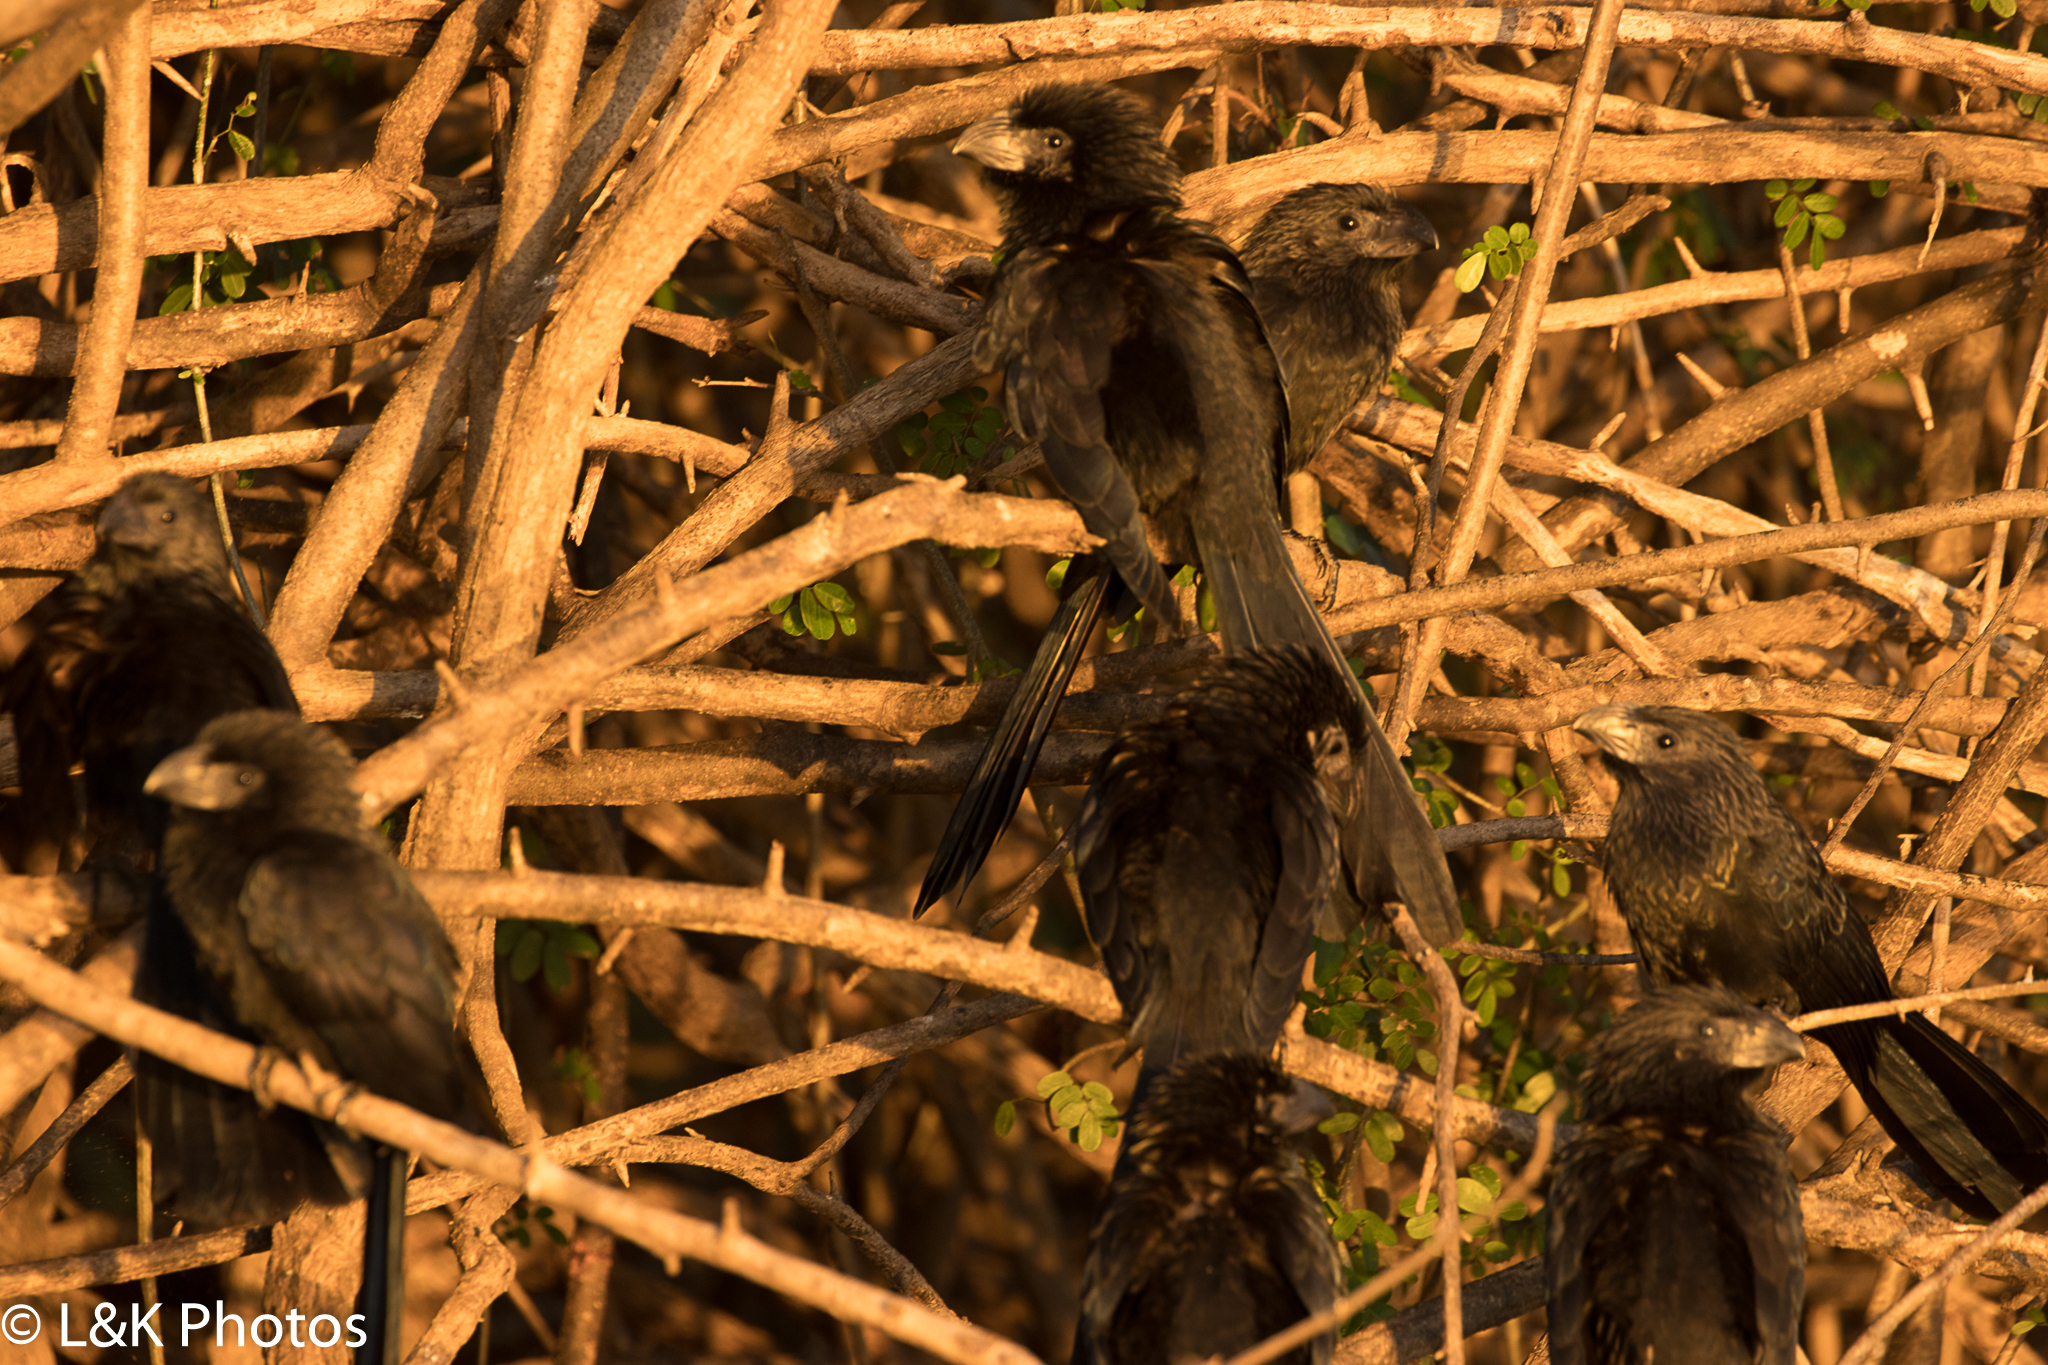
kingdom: Animalia
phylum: Chordata
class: Aves
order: Cuculiformes
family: Cuculidae
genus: Crotophaga
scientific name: Crotophaga sulcirostris
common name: Groove-billed ani
